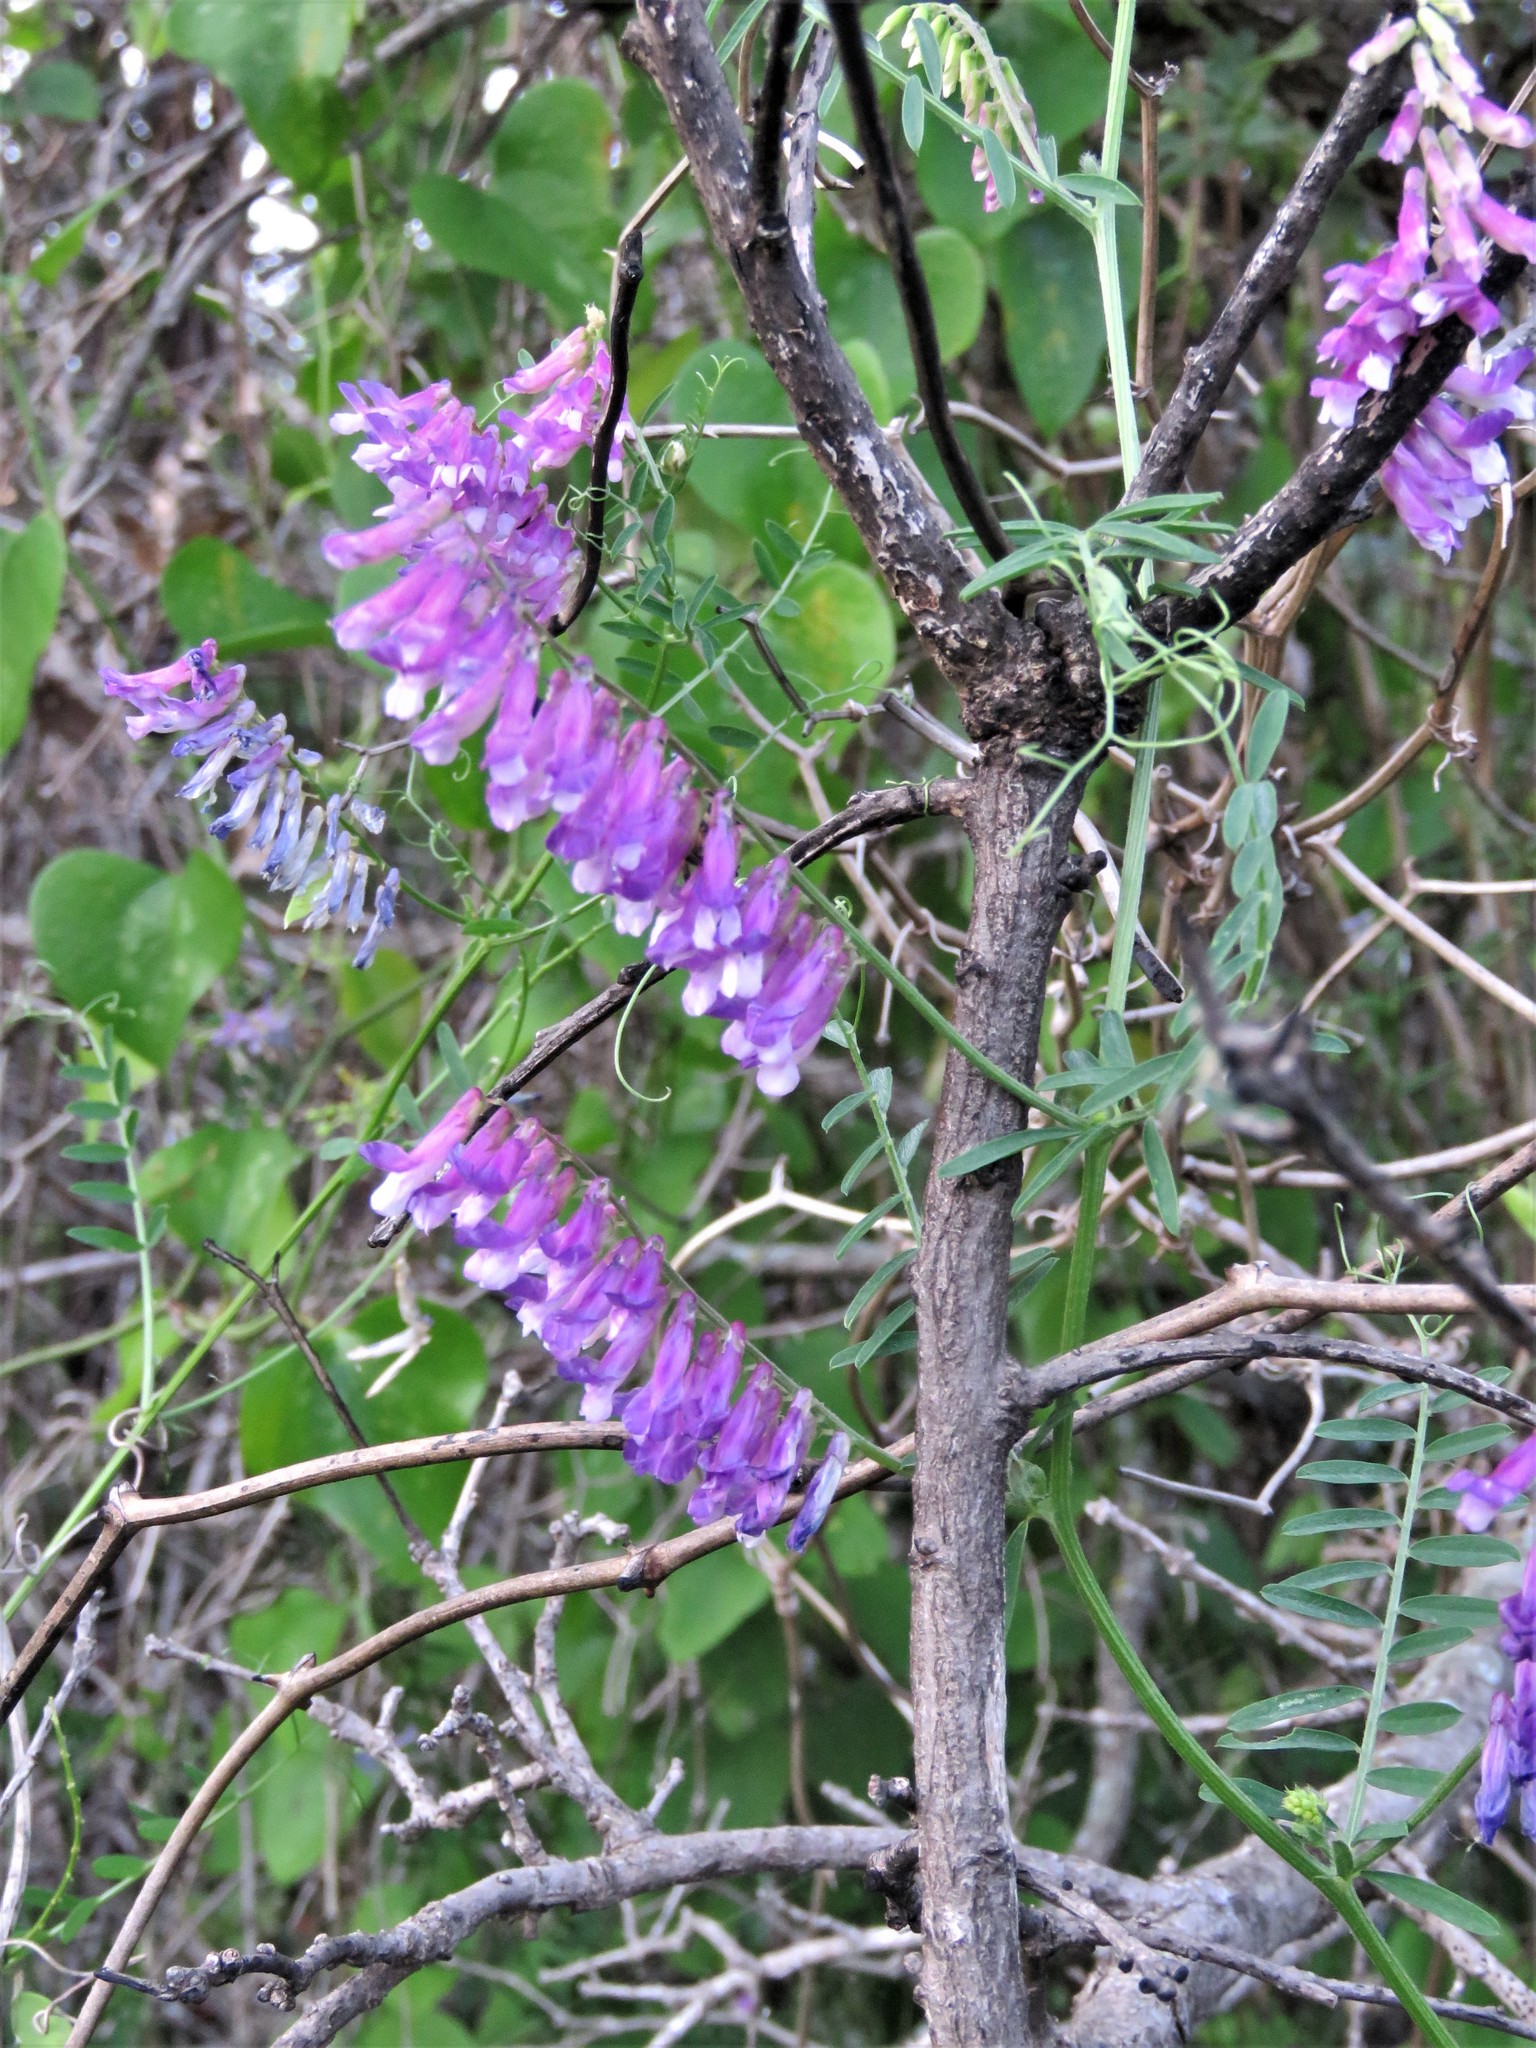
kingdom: Plantae
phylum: Tracheophyta
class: Magnoliopsida
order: Fabales
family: Fabaceae
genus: Vicia
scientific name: Vicia villosa
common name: Fodder vetch
